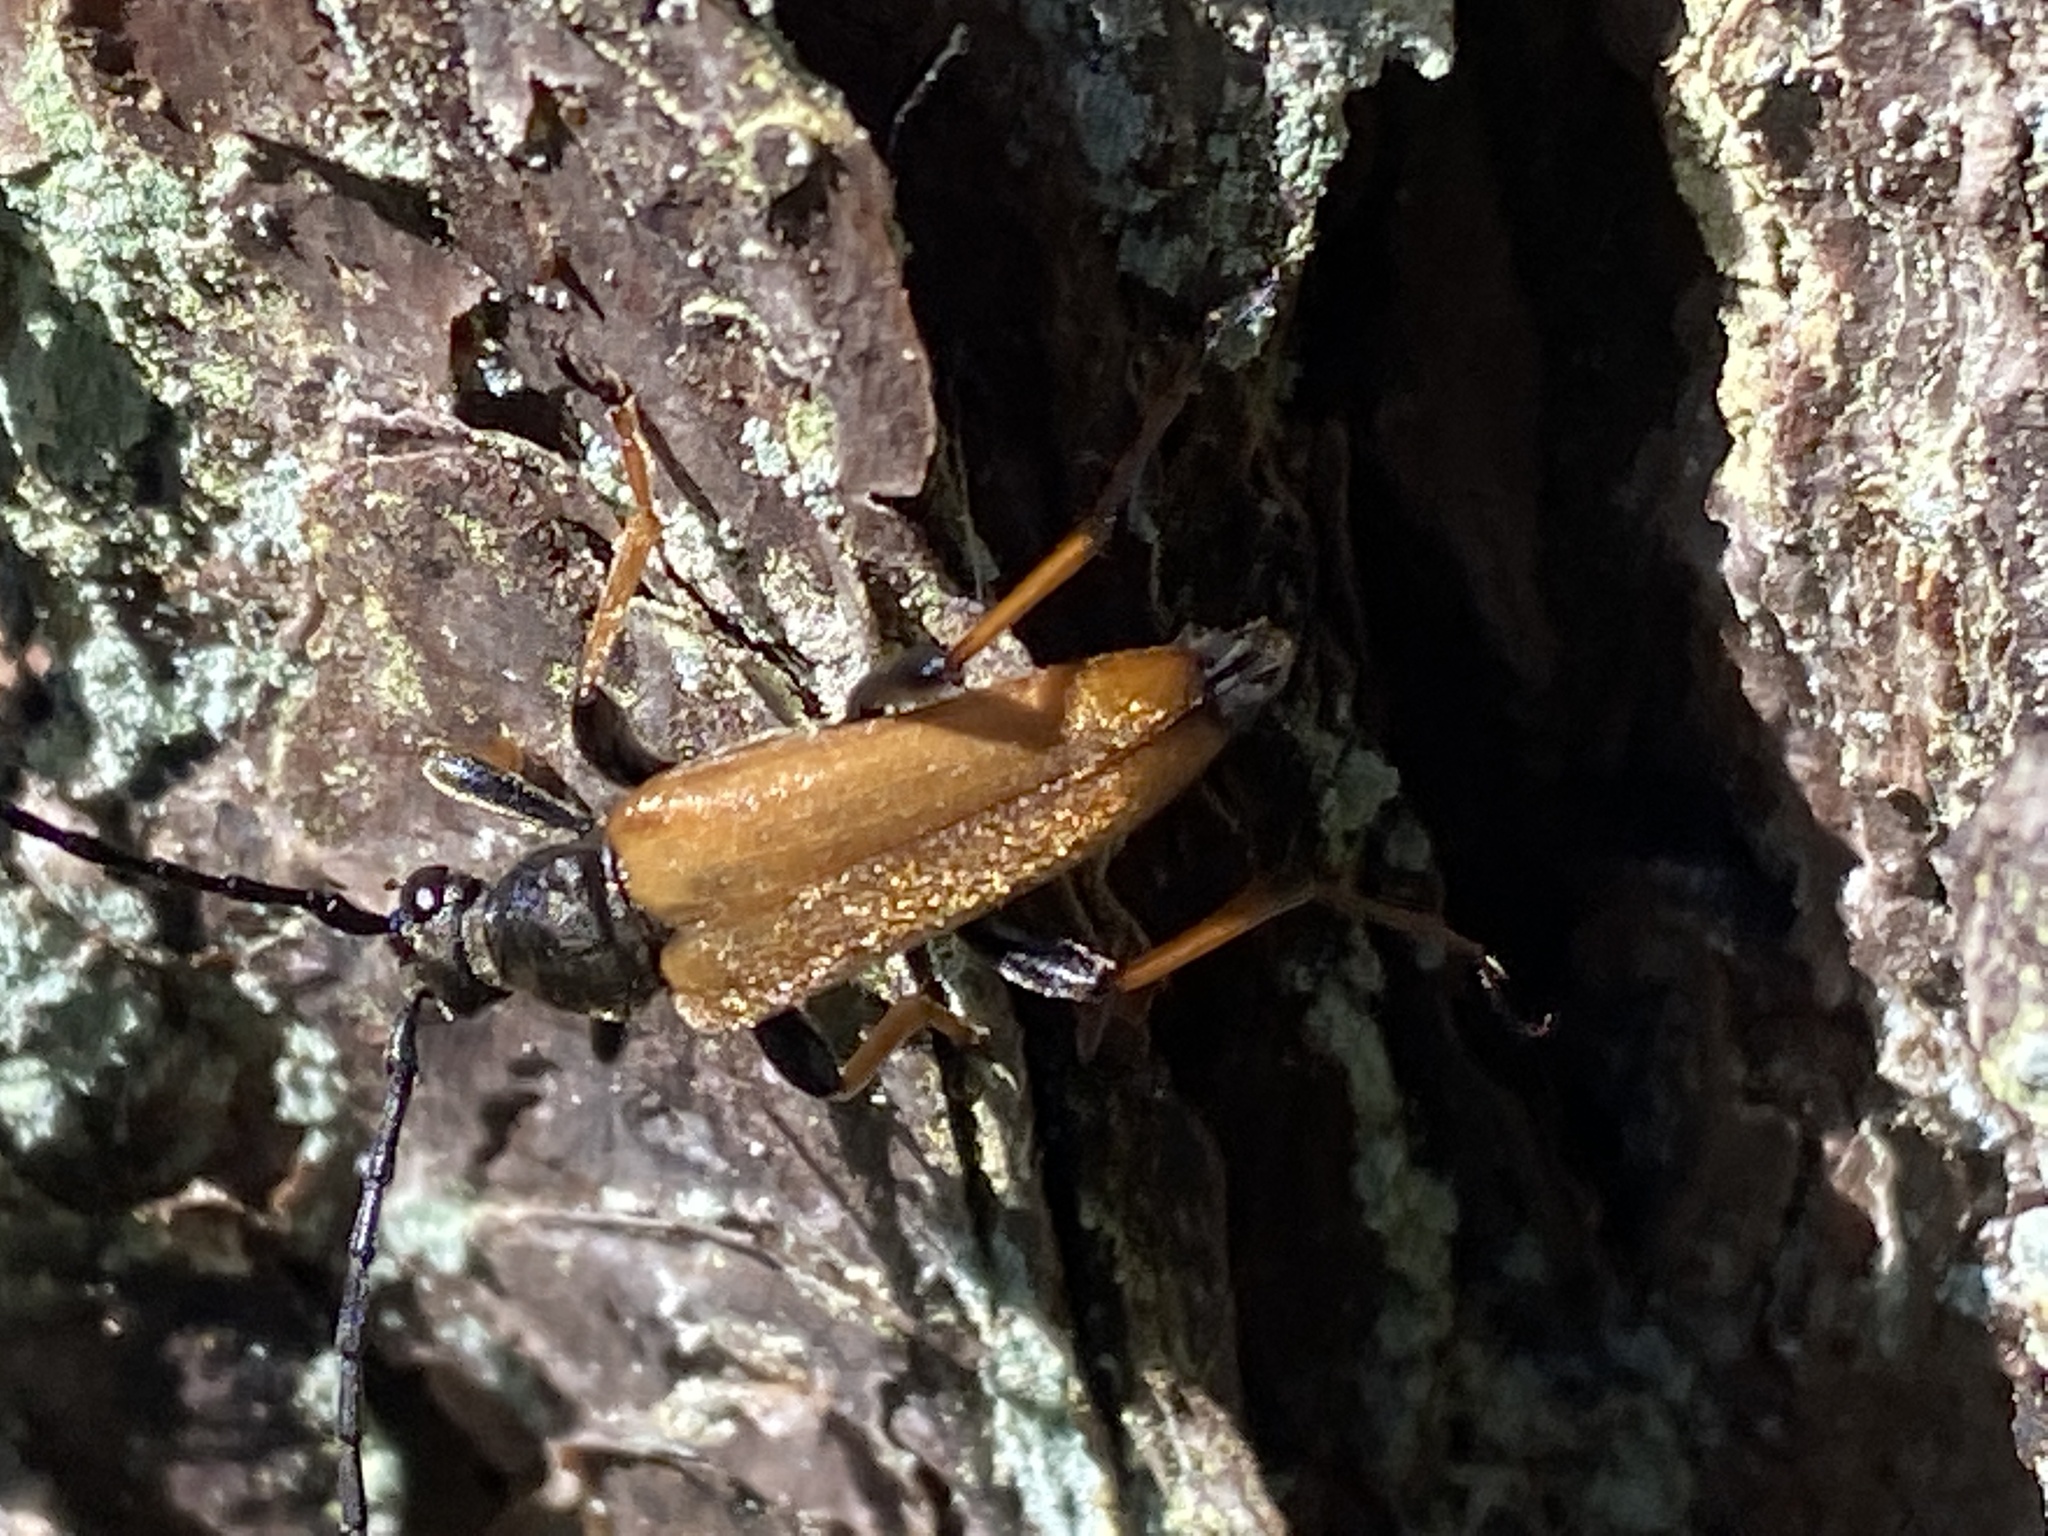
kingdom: Animalia
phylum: Arthropoda
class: Insecta
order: Coleoptera
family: Cerambycidae
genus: Stictoleptura
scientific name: Stictoleptura rubra
